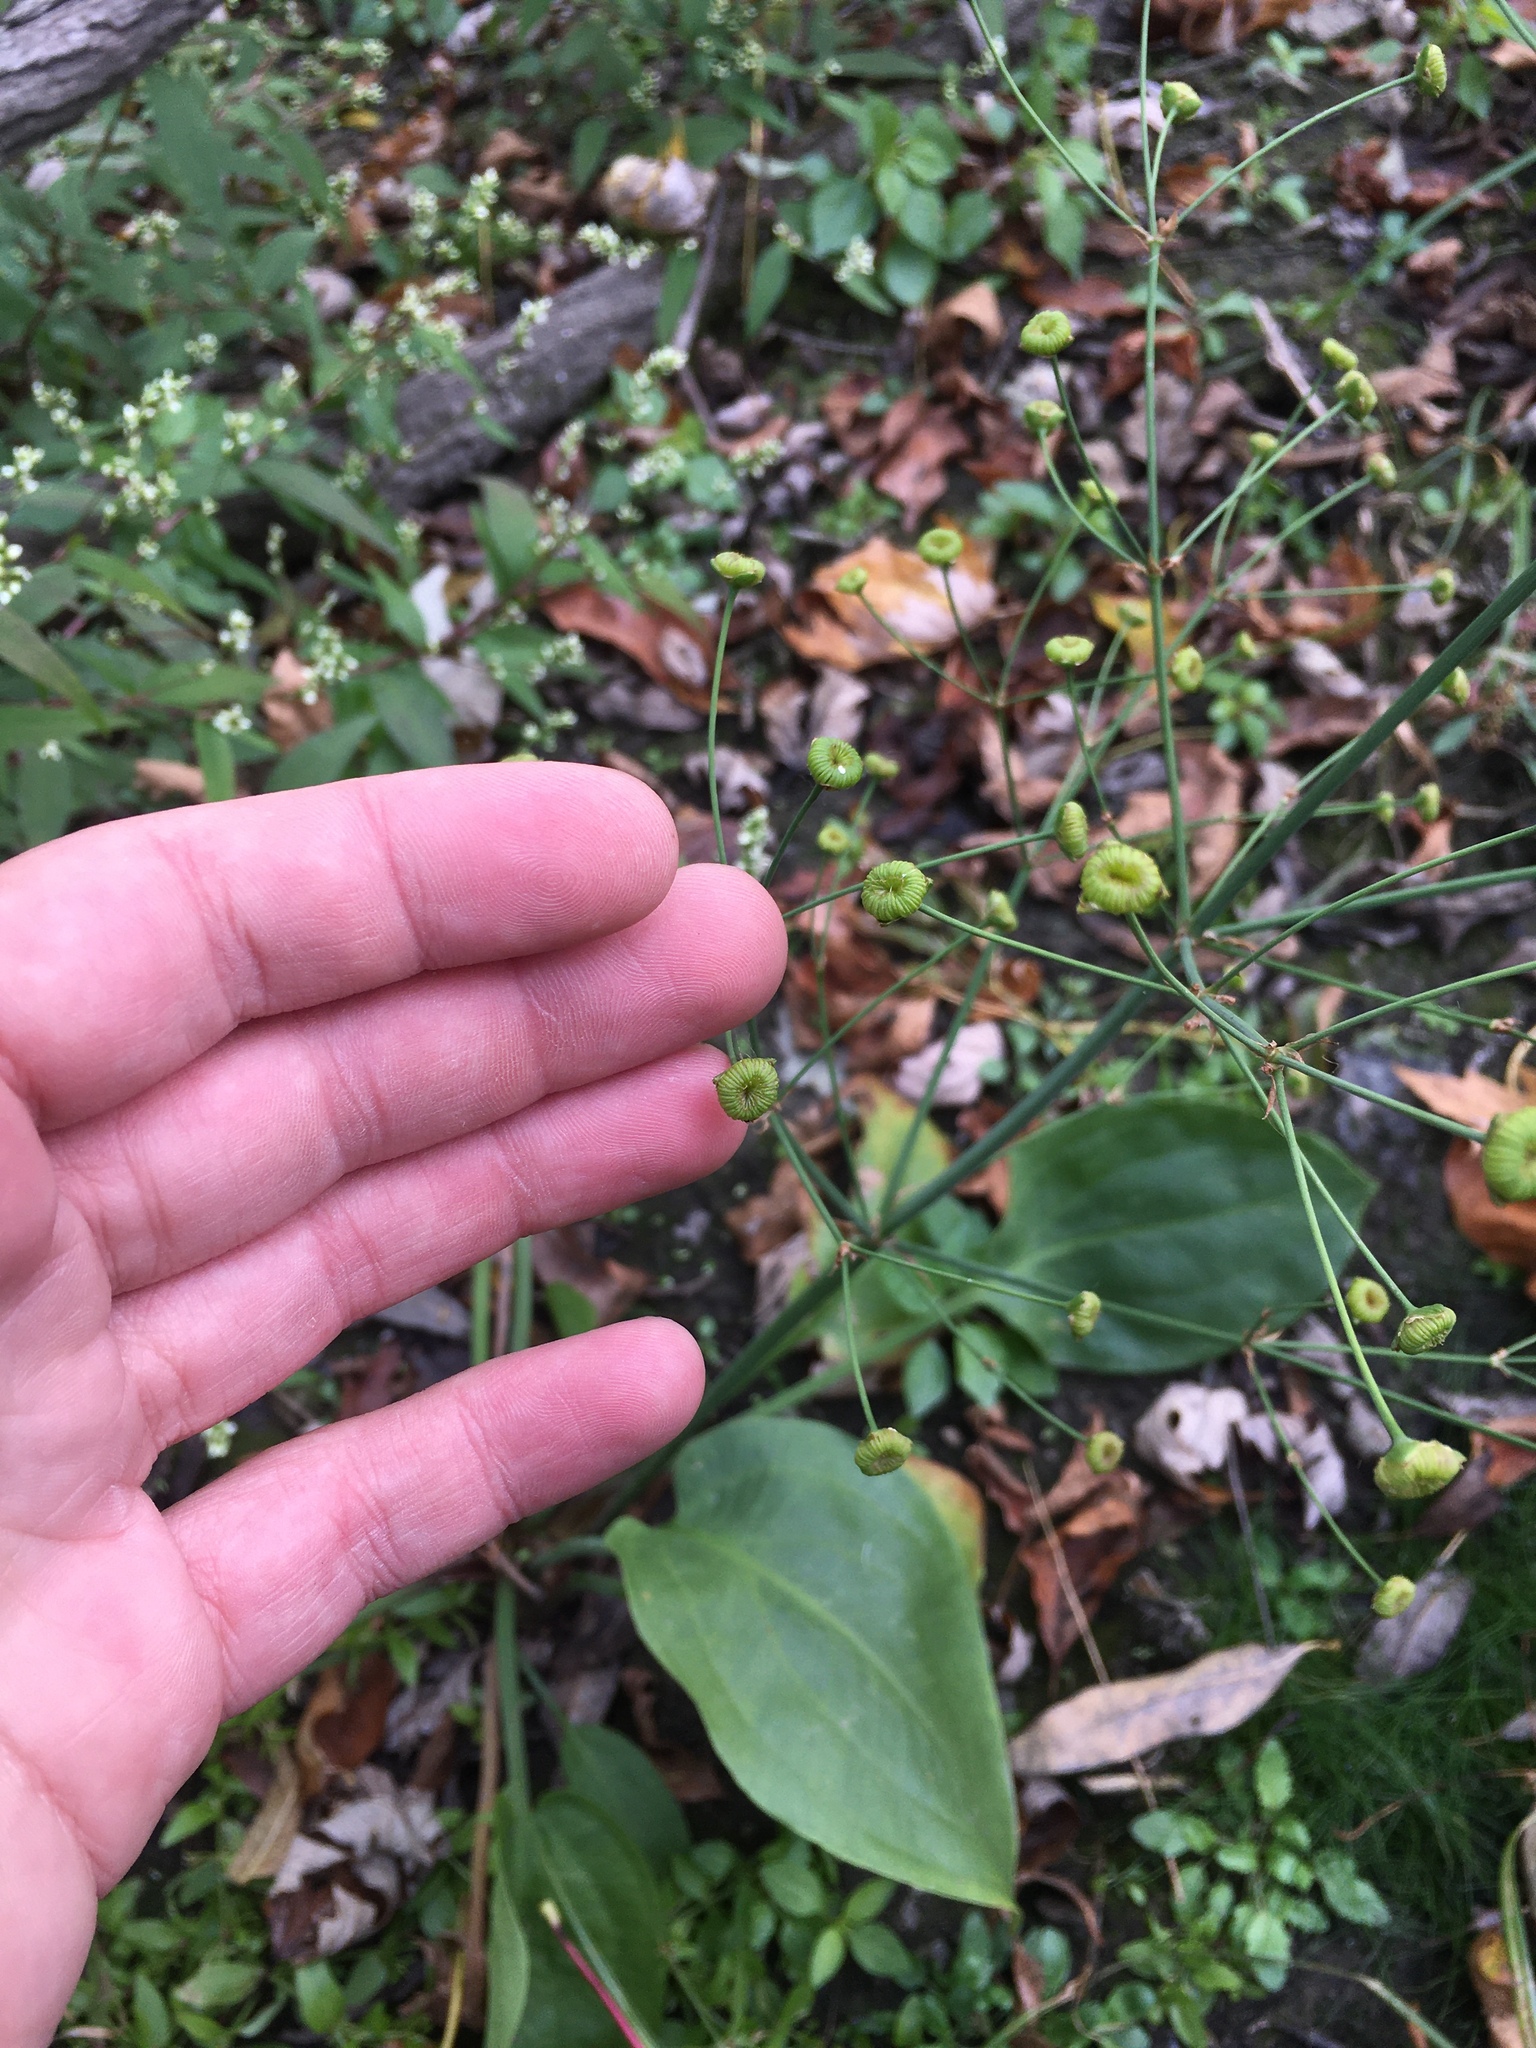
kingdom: Plantae
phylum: Tracheophyta
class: Liliopsida
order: Alismatales
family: Alismataceae
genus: Alisma
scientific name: Alisma triviale
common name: Northern water-plantain
